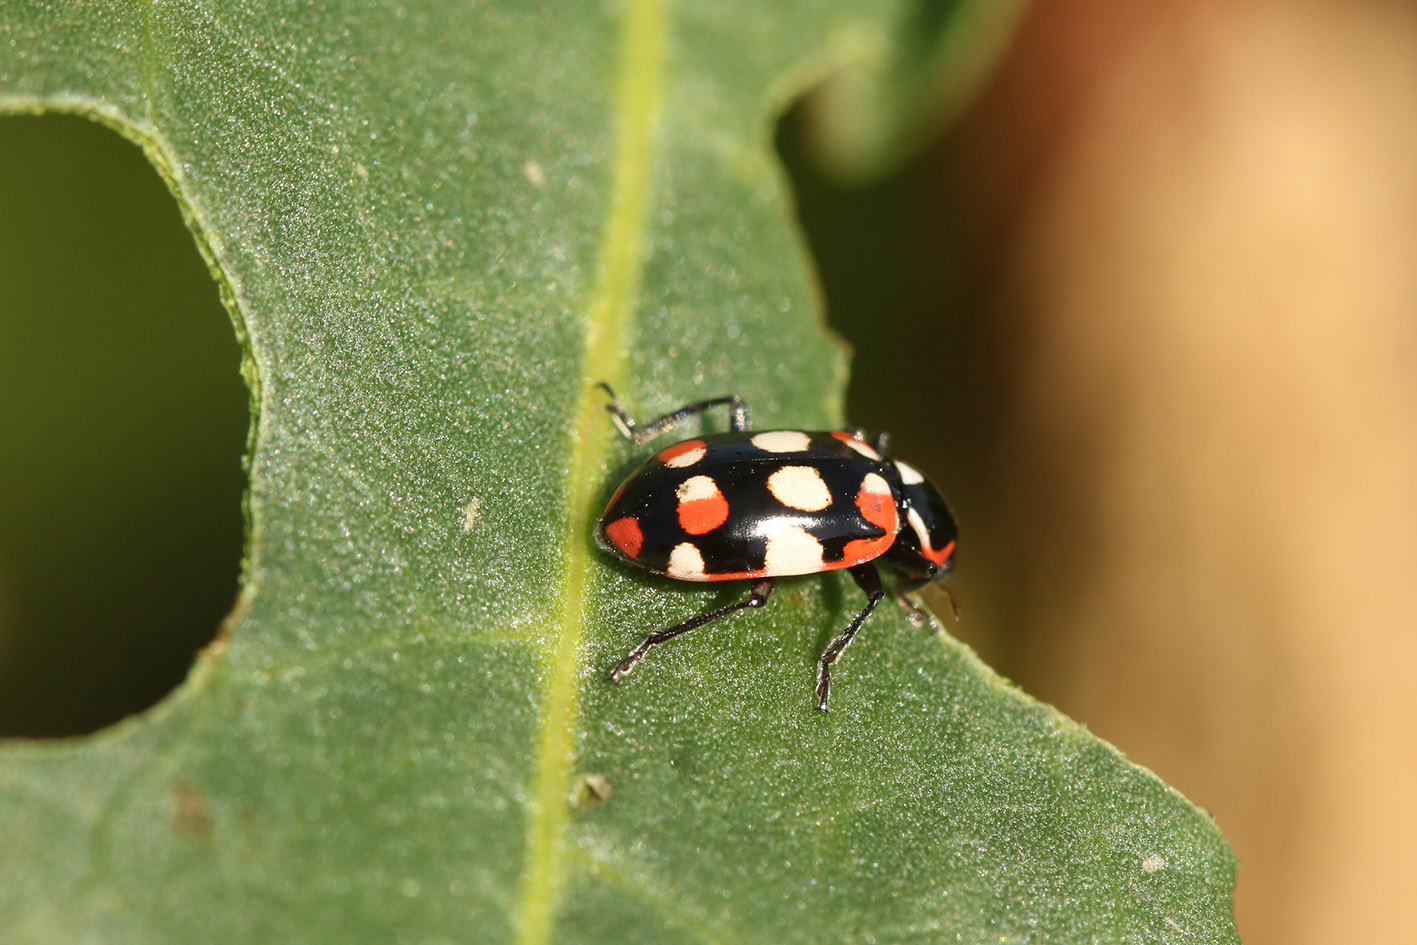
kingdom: Animalia
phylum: Arthropoda
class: Insecta
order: Coleoptera
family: Coccinellidae
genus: Eriopis
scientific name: Eriopis connexa
